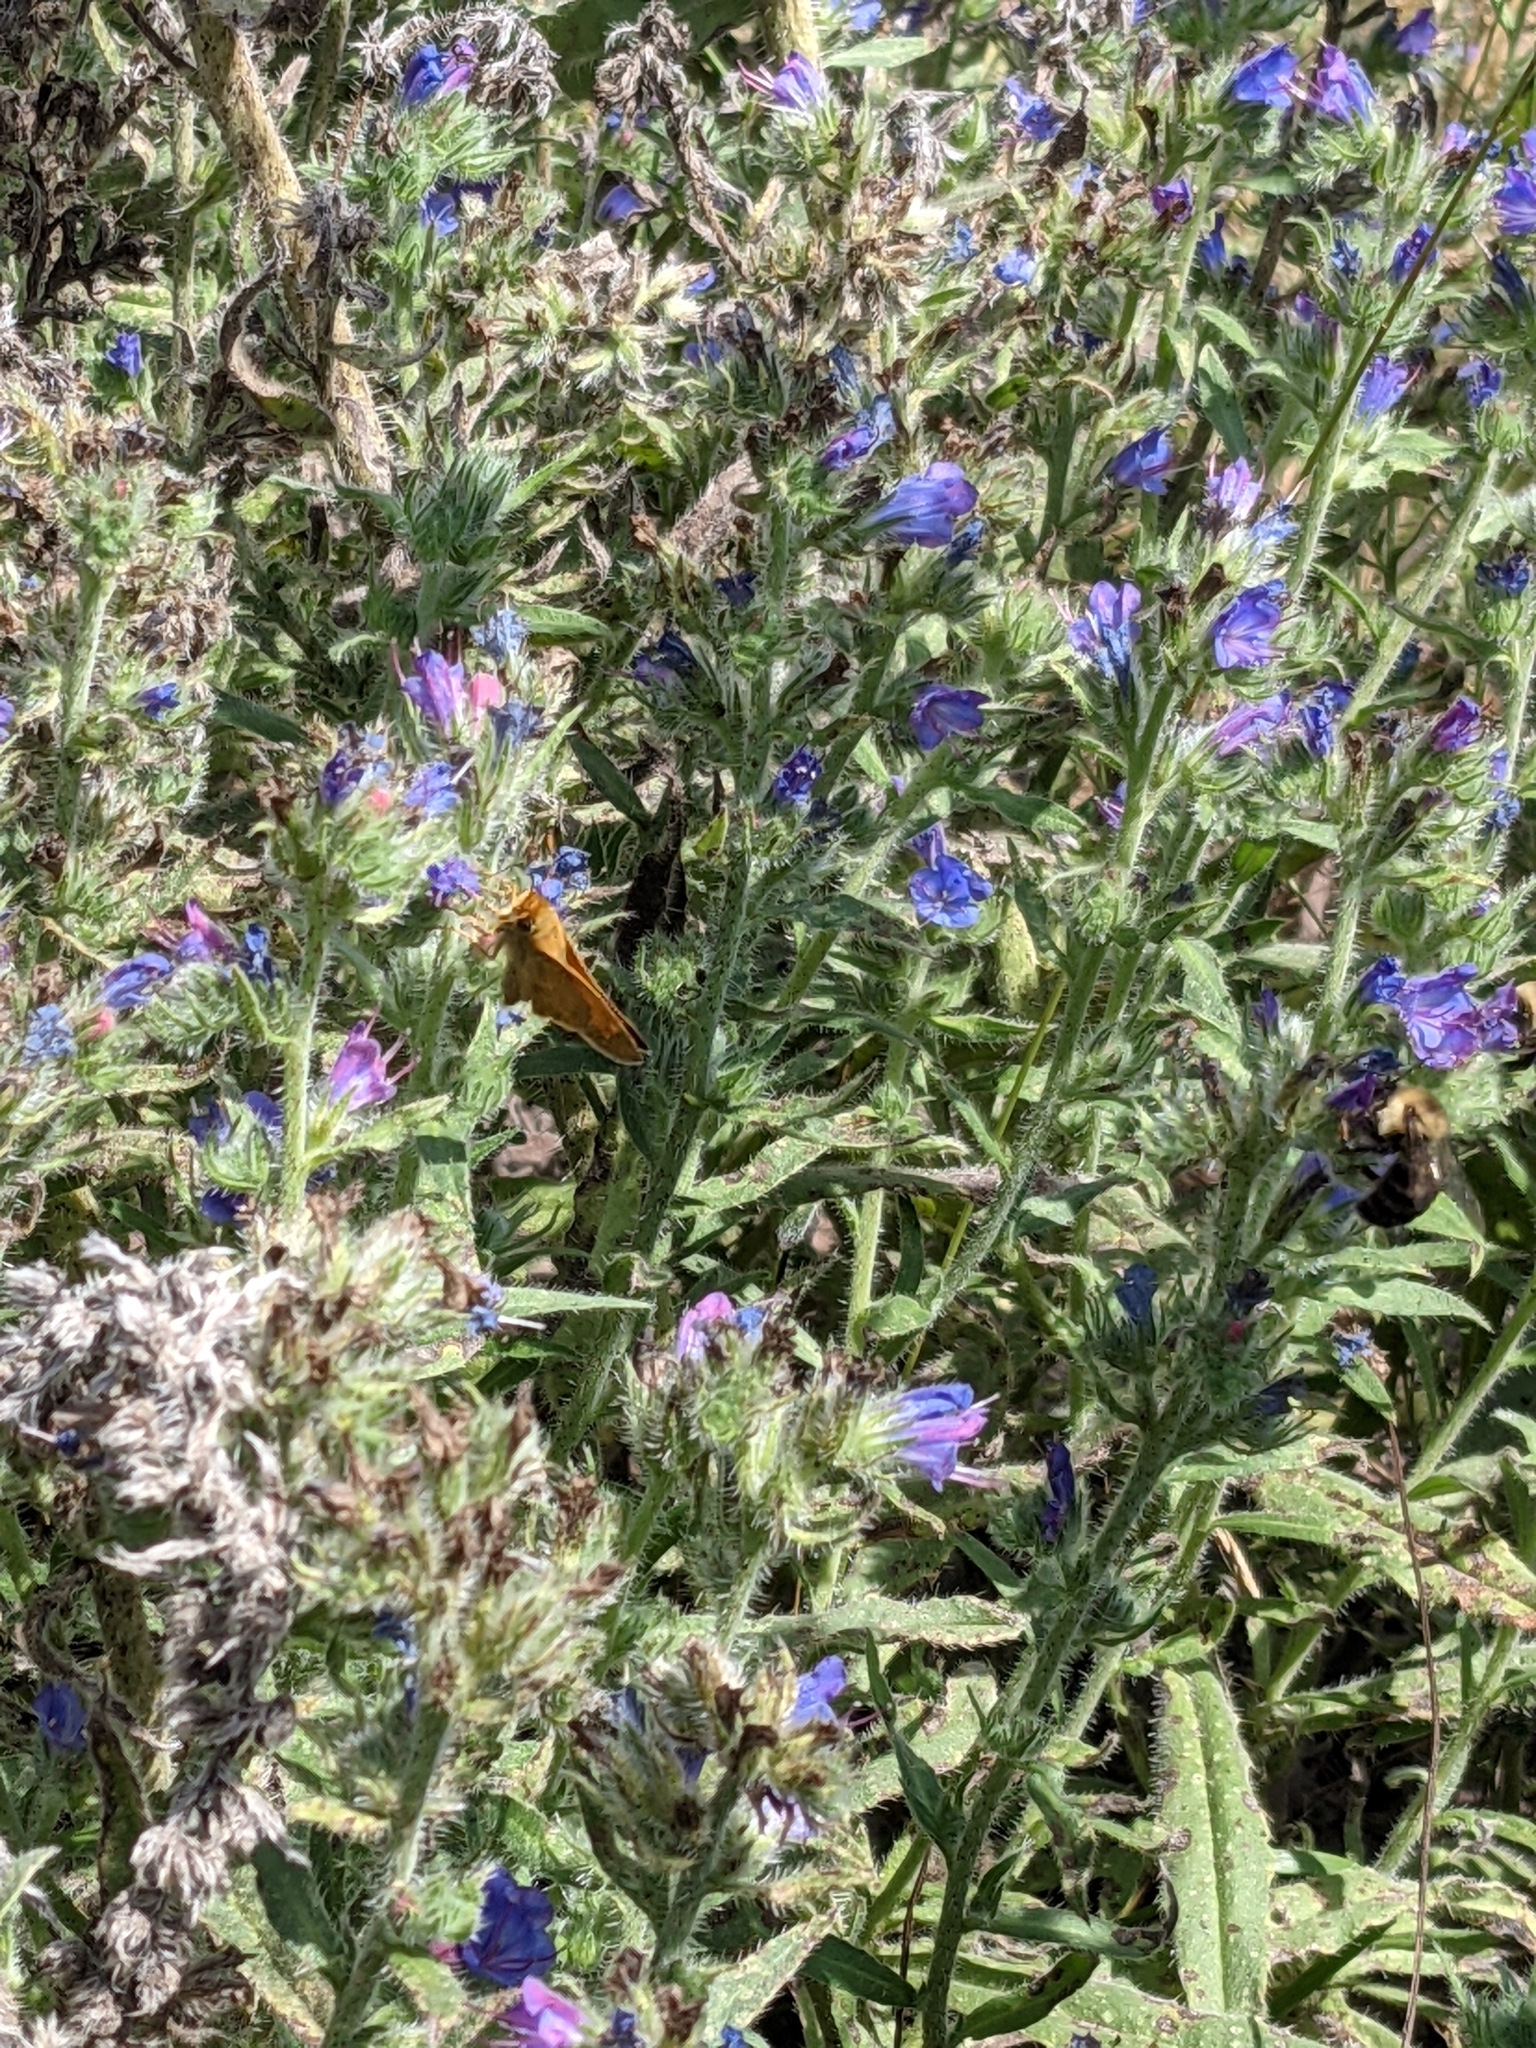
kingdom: Animalia
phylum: Arthropoda
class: Insecta
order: Lepidoptera
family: Hesperiidae
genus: Atalopedes
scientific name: Atalopedes
